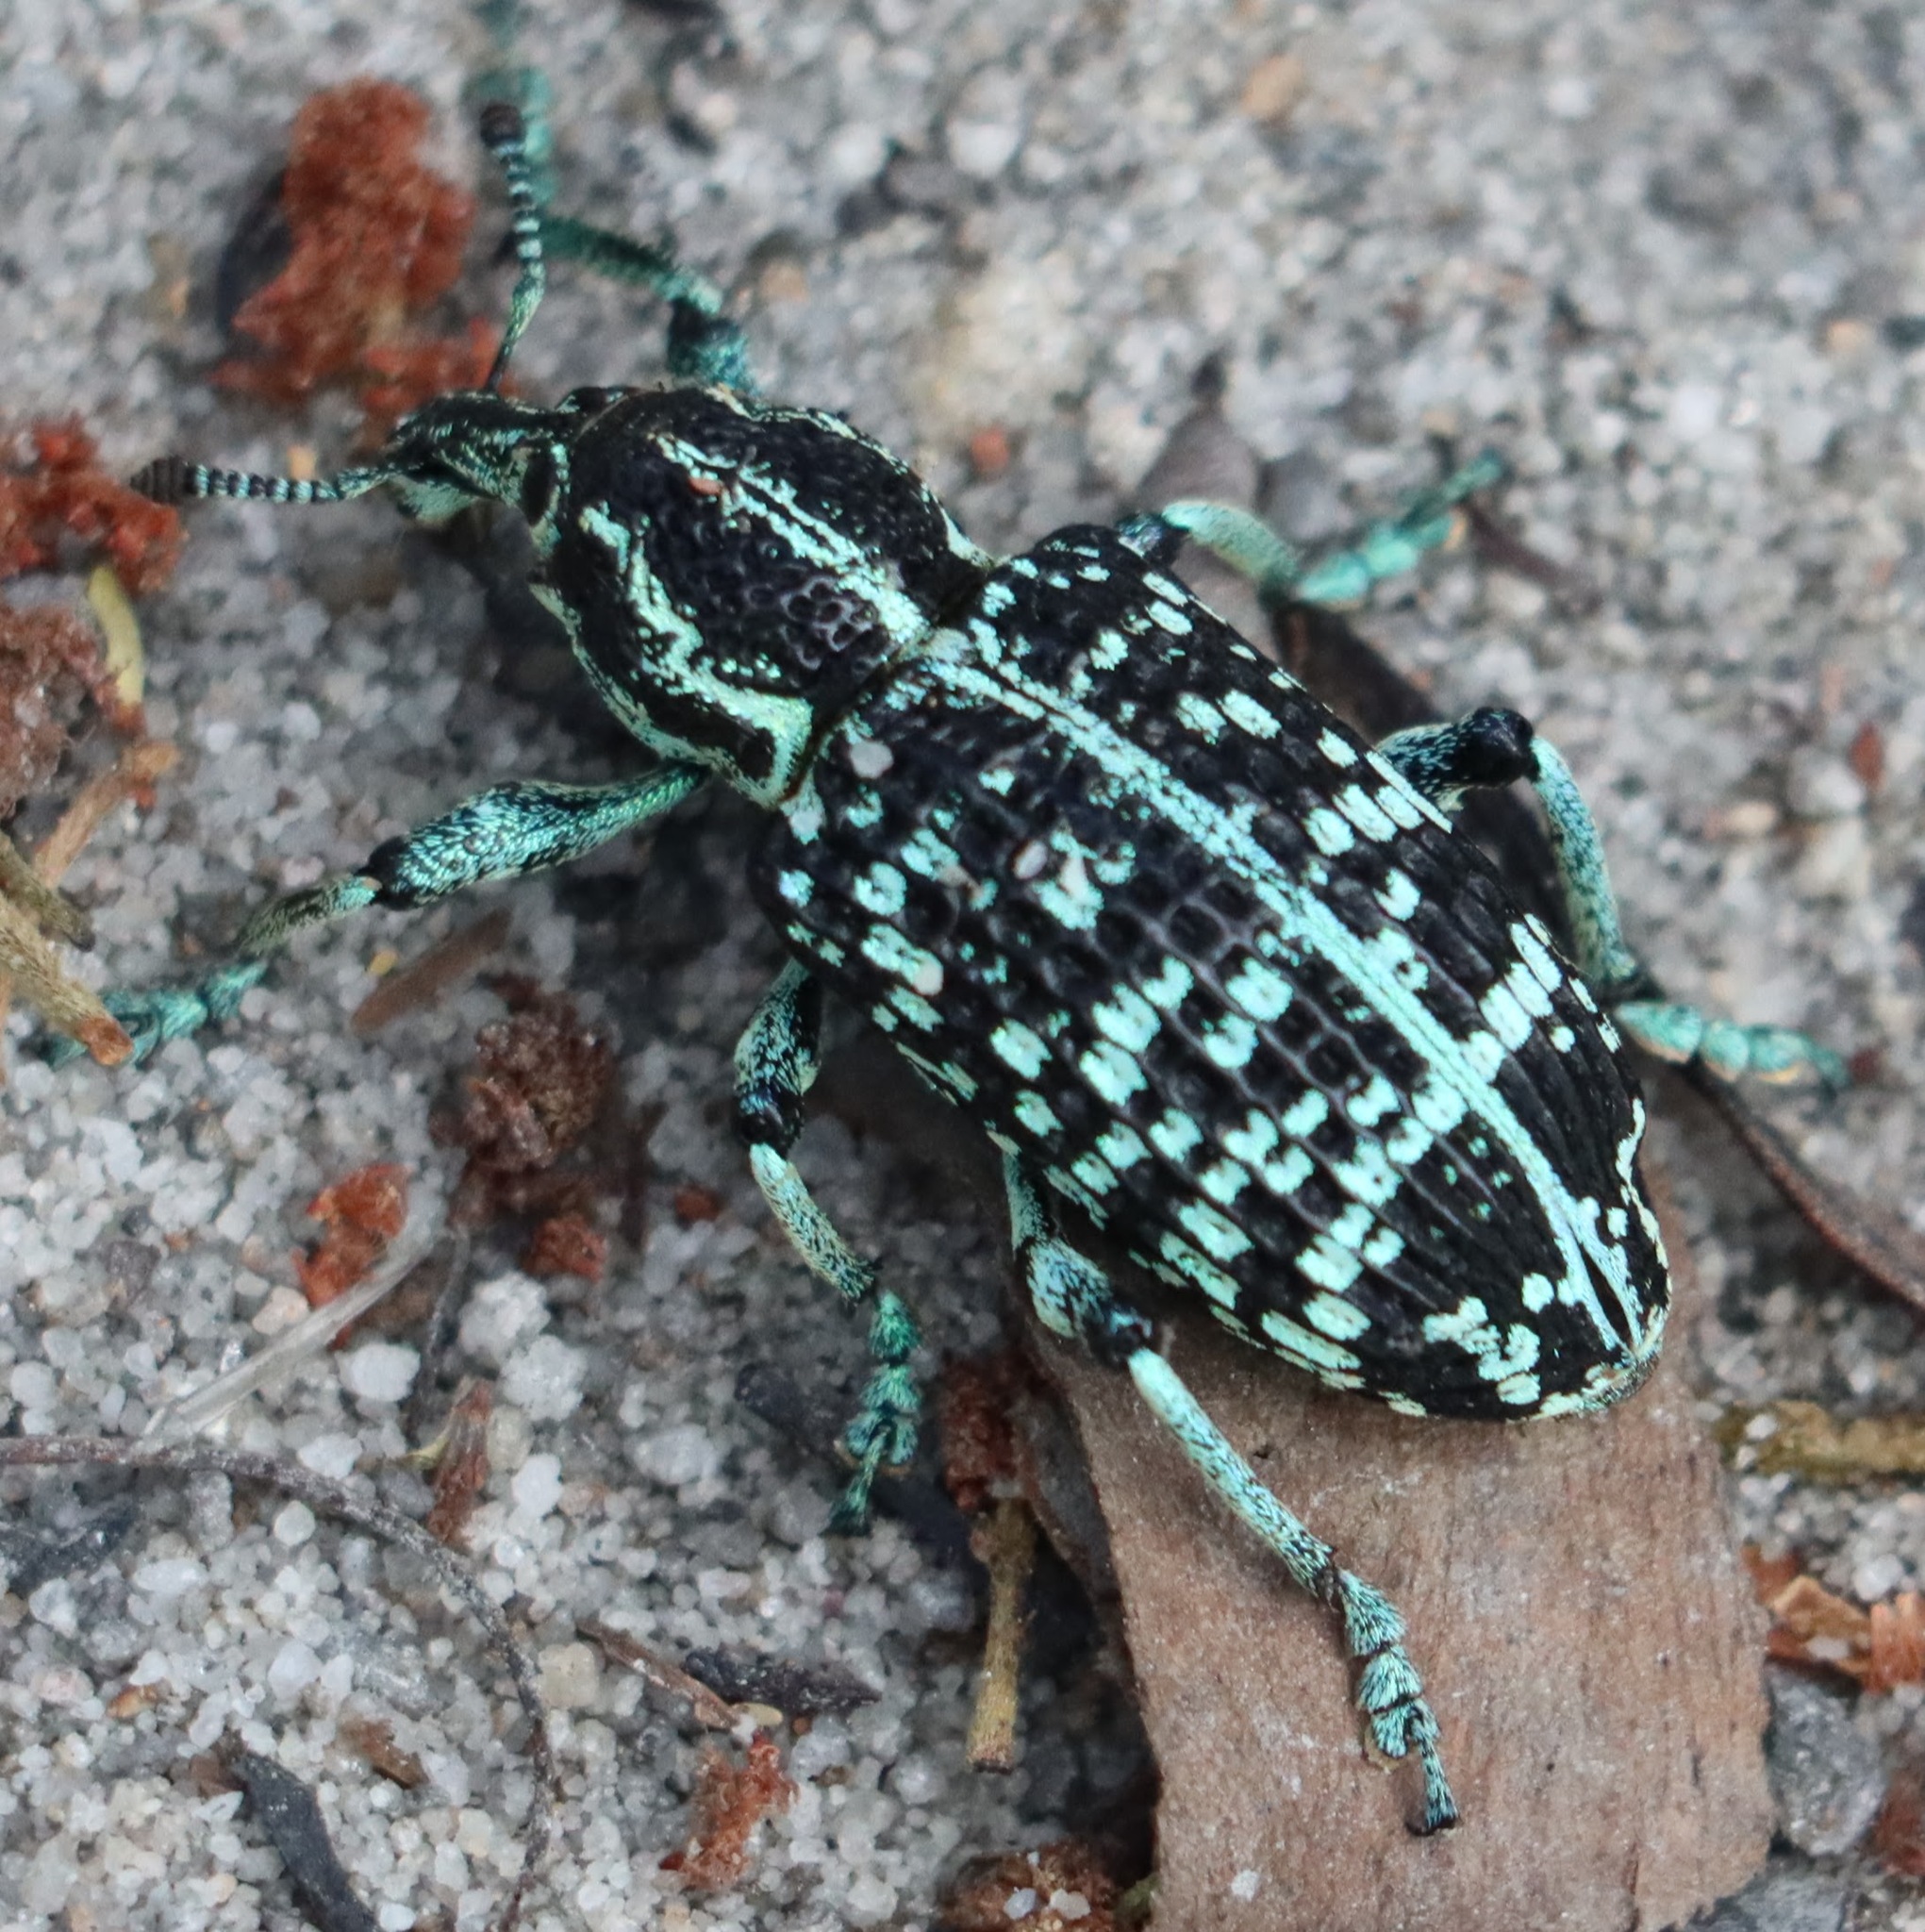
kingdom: Animalia
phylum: Arthropoda
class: Insecta
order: Coleoptera
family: Curculionidae
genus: Chrysolopus
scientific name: Chrysolopus spectabilis
